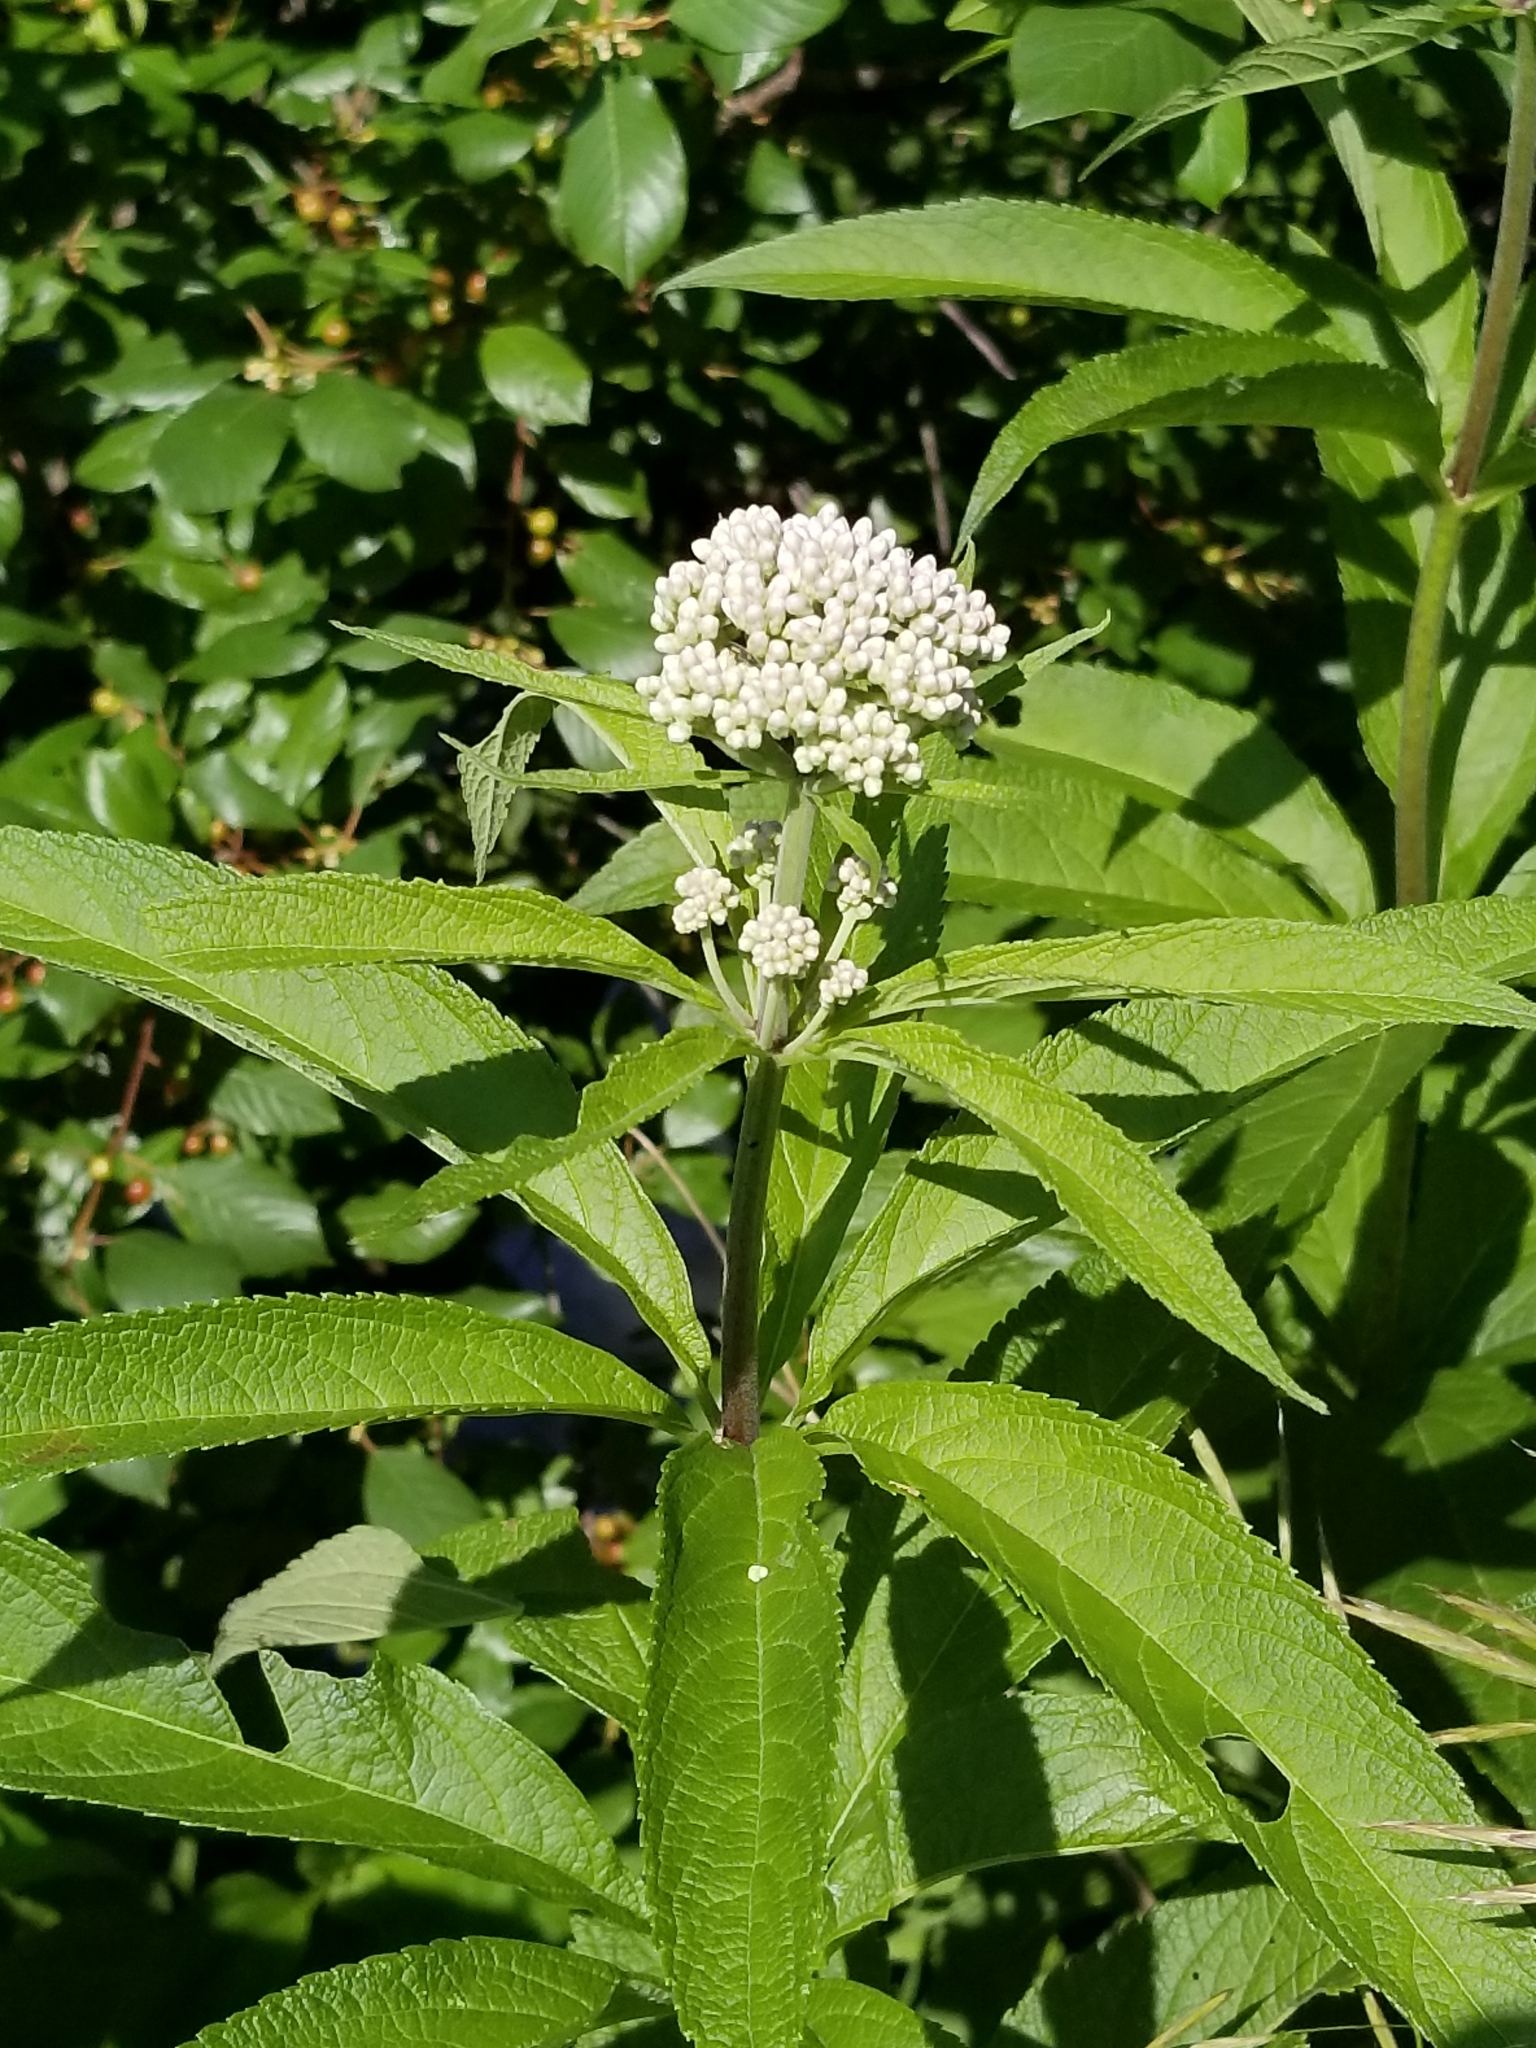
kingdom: Plantae
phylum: Tracheophyta
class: Magnoliopsida
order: Asterales
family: Asteraceae
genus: Eutrochium
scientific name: Eutrochium maculatum
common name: Spotted joe pye weed
